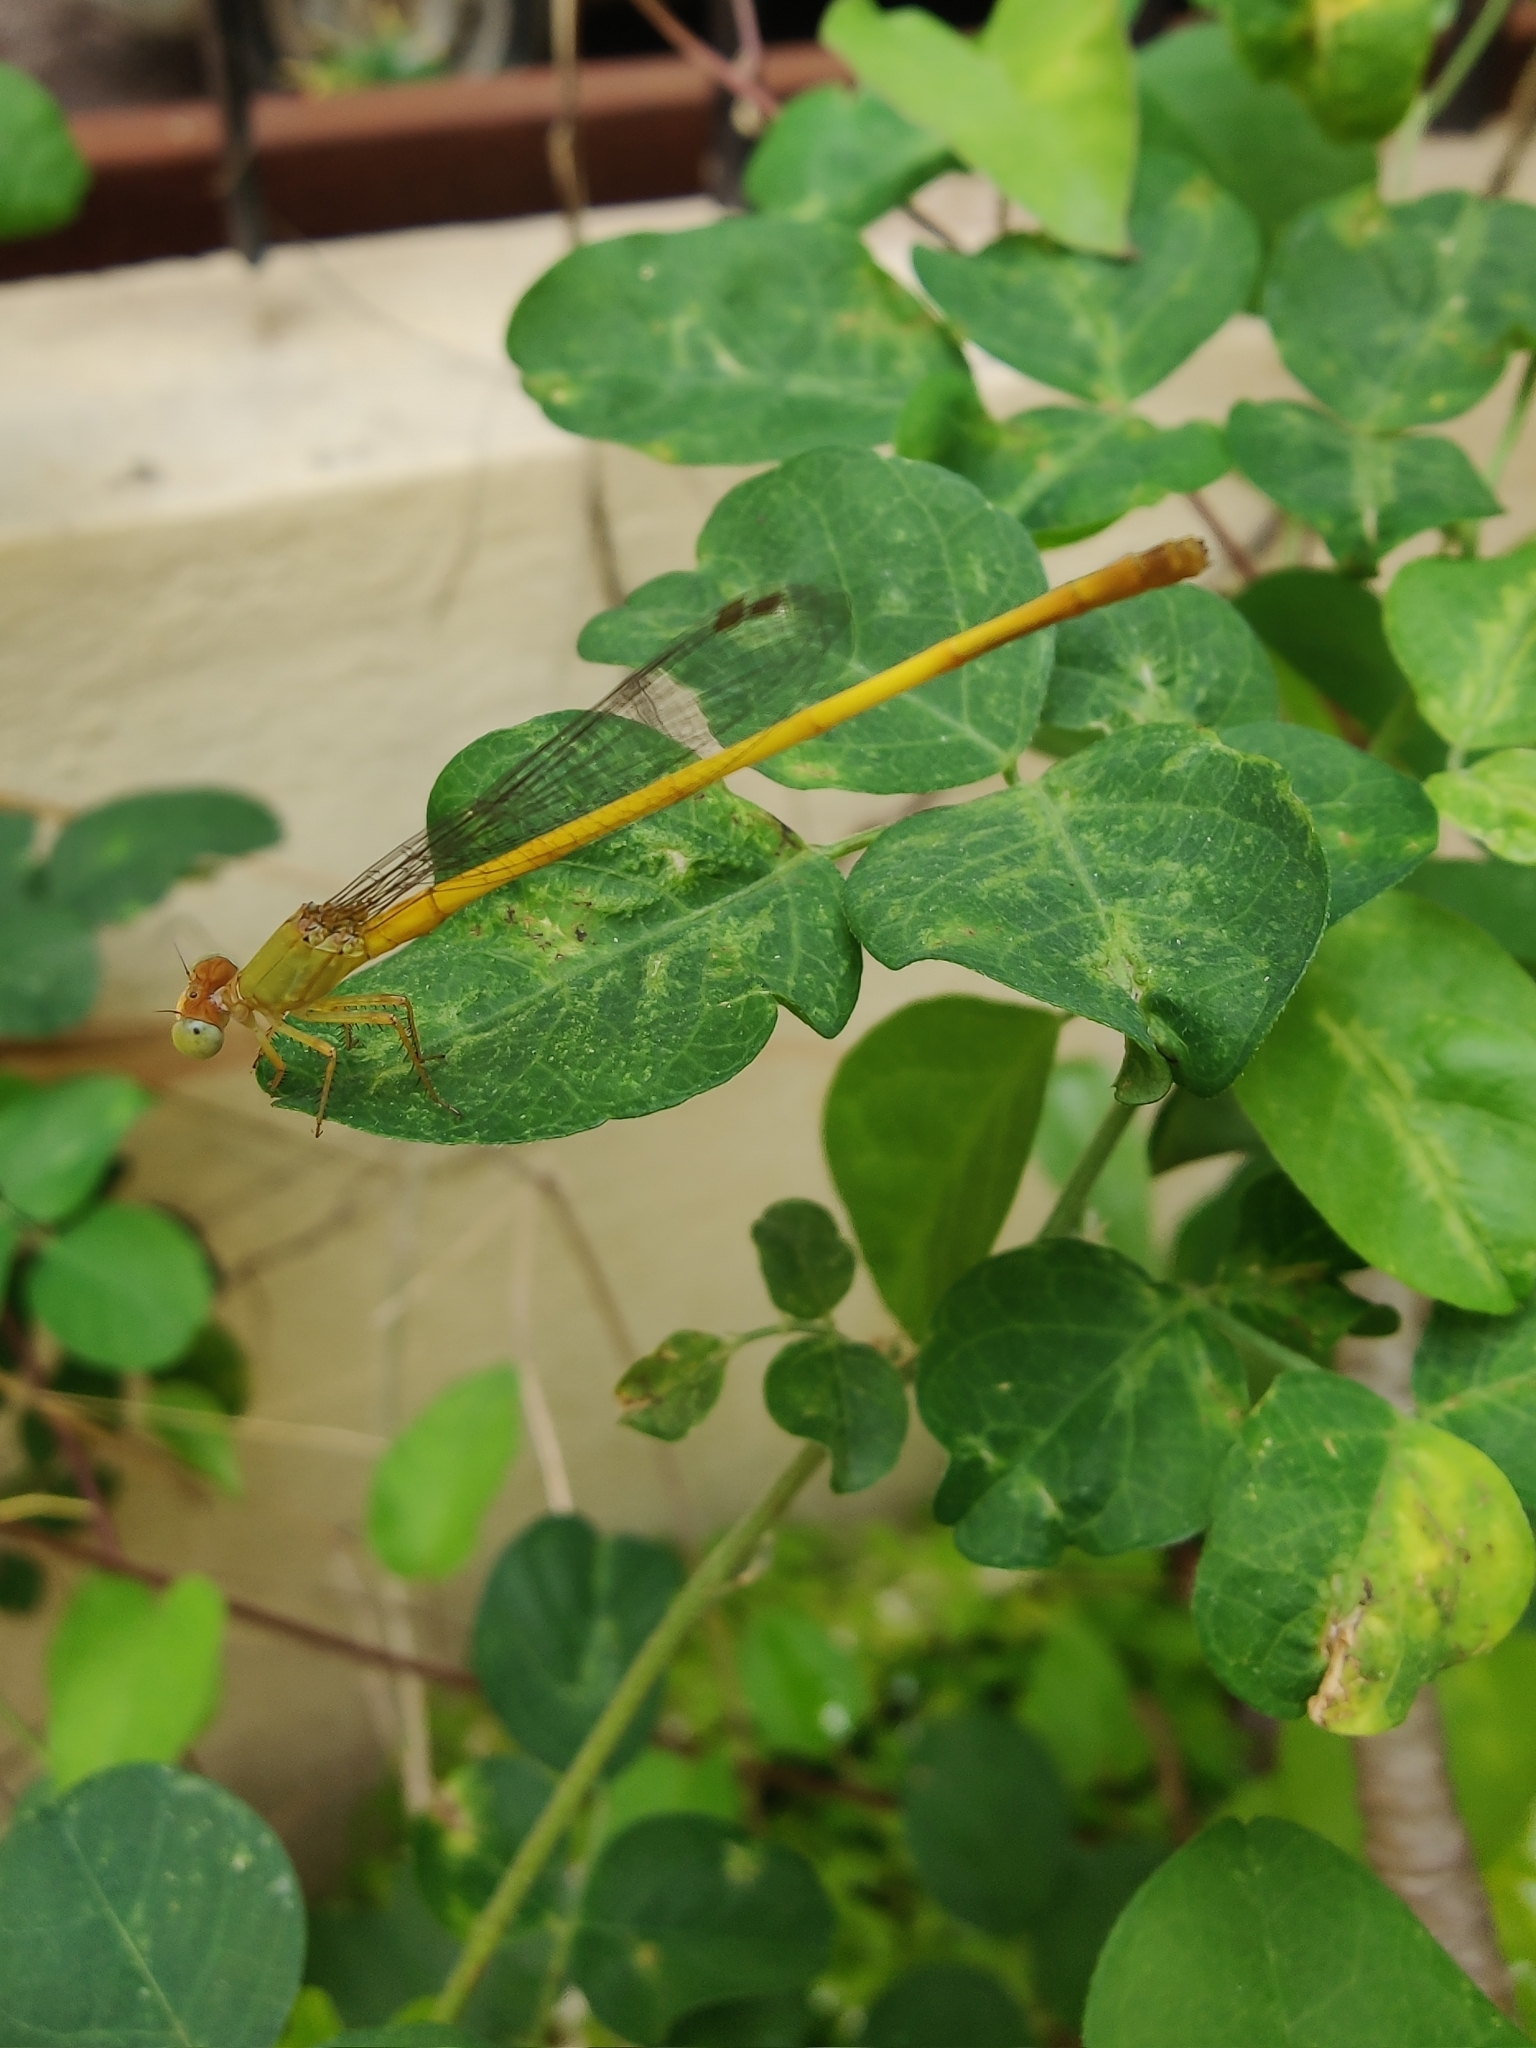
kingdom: Animalia
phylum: Arthropoda
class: Insecta
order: Odonata
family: Coenagrionidae
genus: Ceriagrion
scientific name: Ceriagrion coromandelianum
